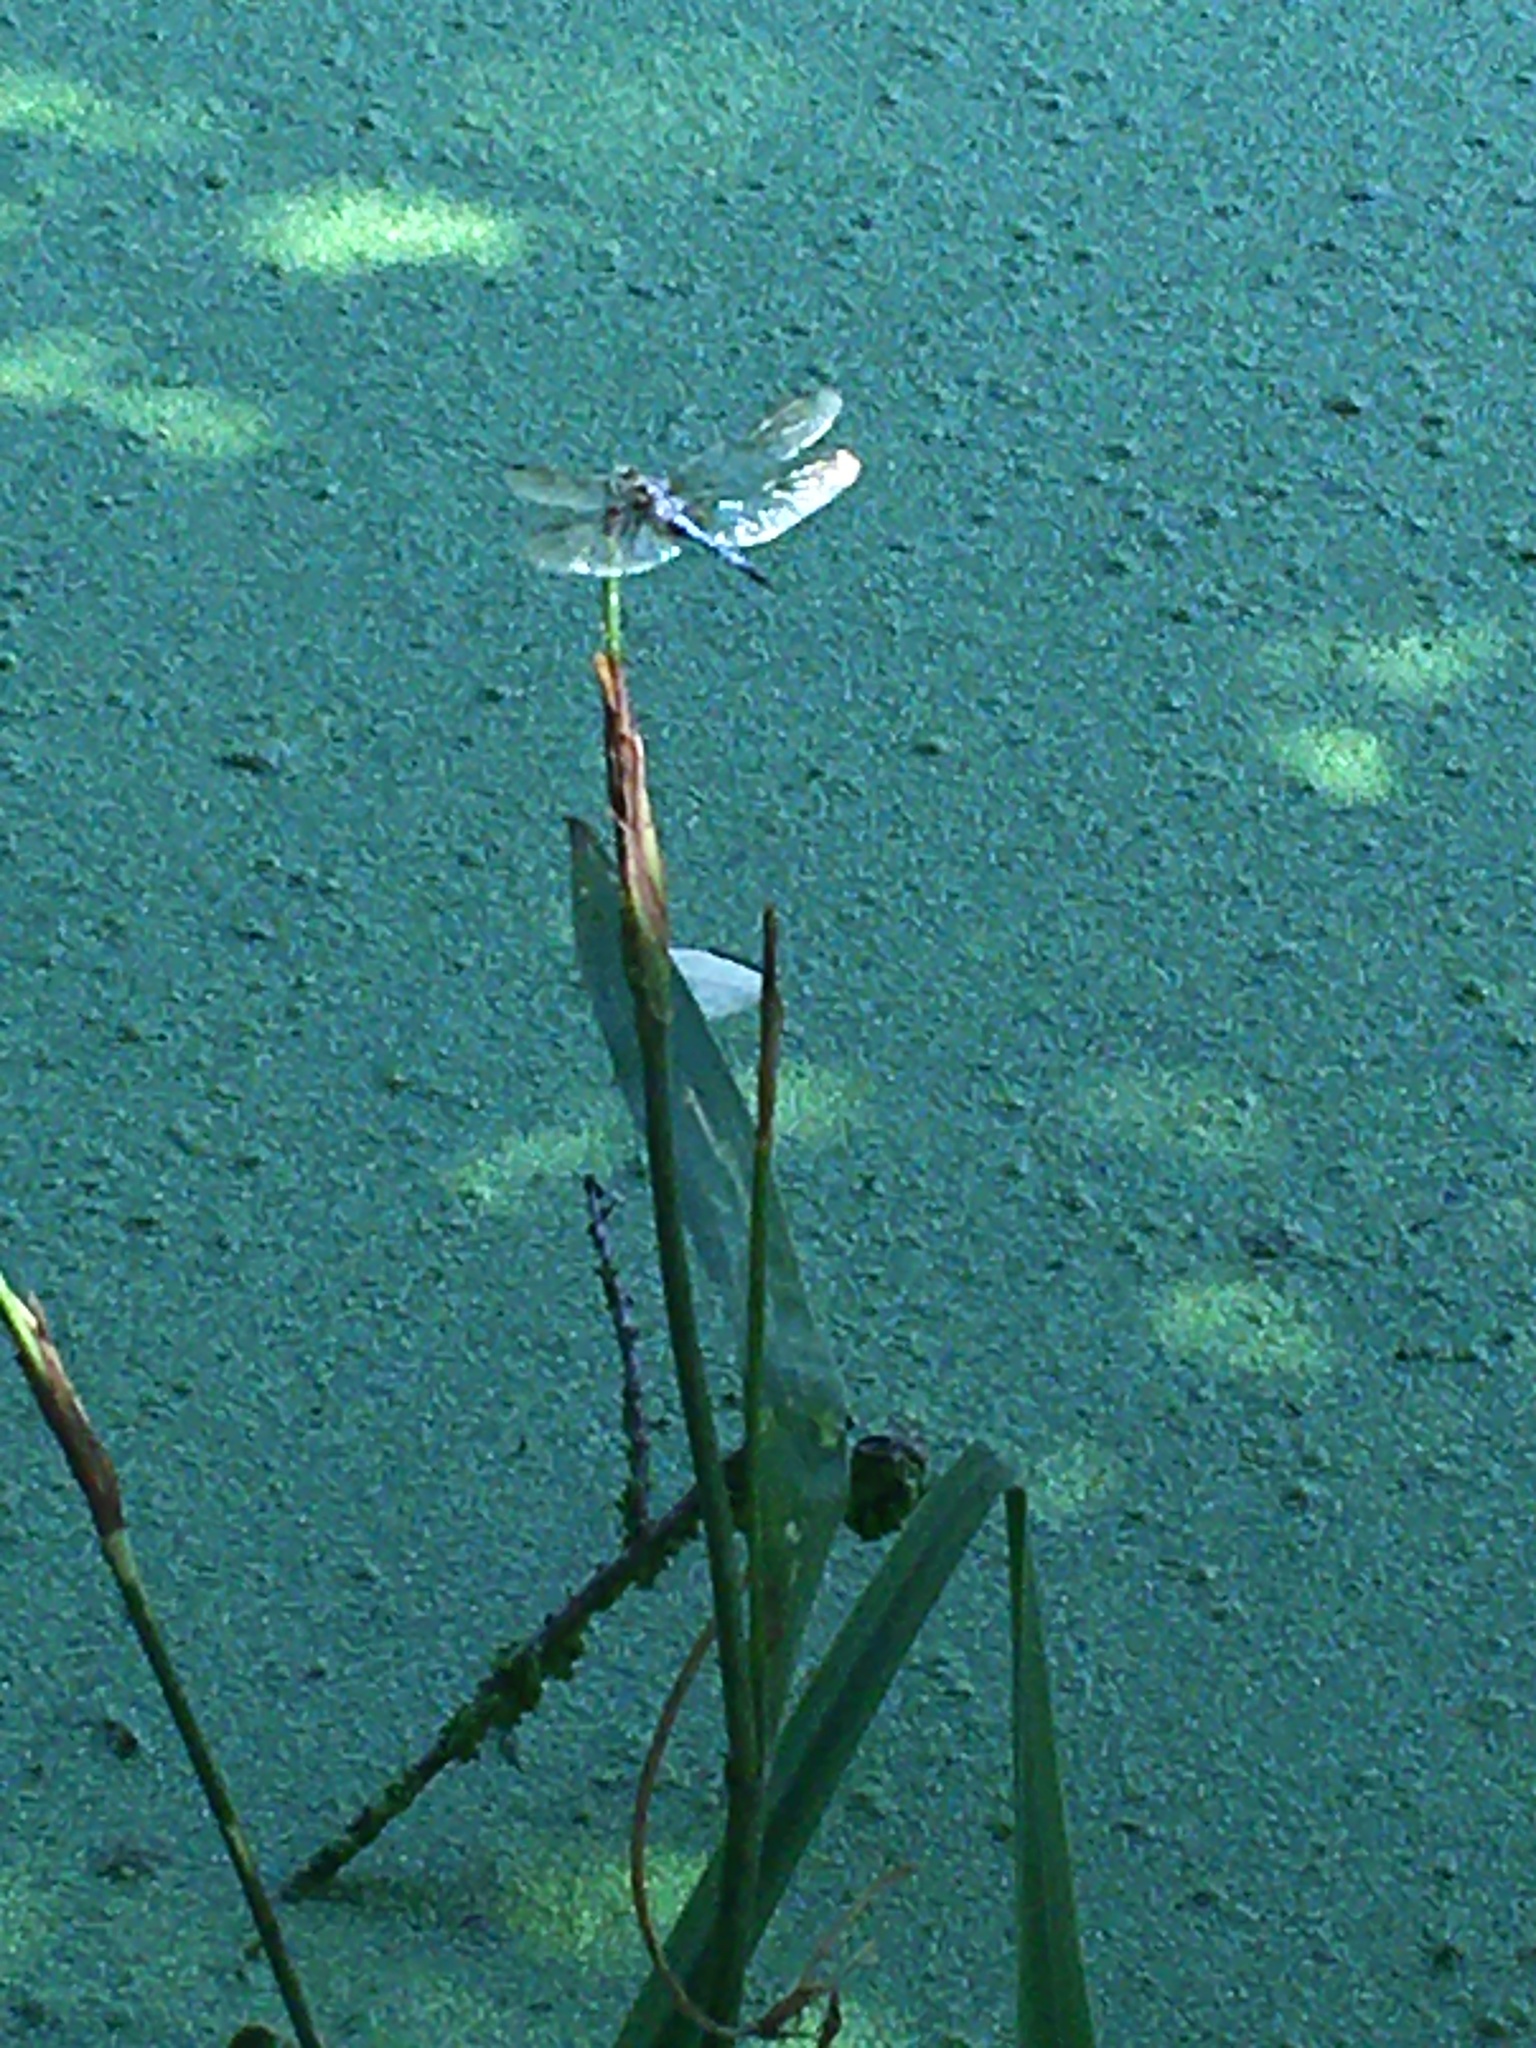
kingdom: Animalia
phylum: Arthropoda
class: Insecta
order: Odonata
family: Libellulidae
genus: Pachydiplax
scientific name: Pachydiplax longipennis
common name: Blue dasher
